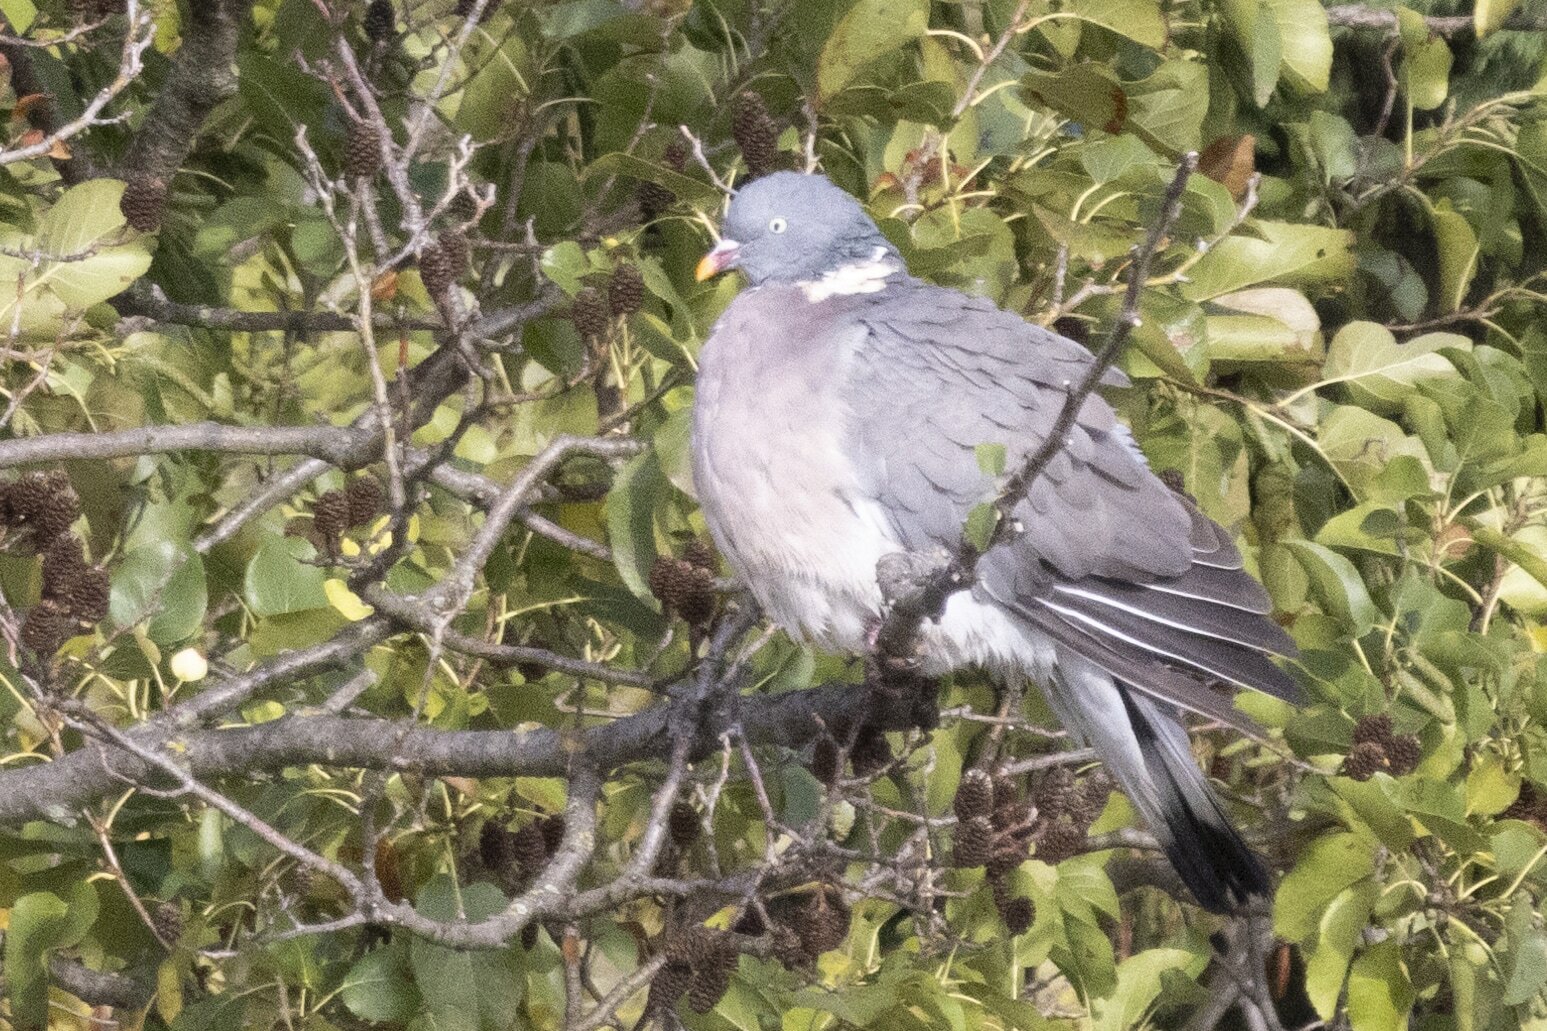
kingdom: Animalia
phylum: Chordata
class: Aves
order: Columbiformes
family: Columbidae
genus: Columba
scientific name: Columba palumbus
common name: Common wood pigeon
